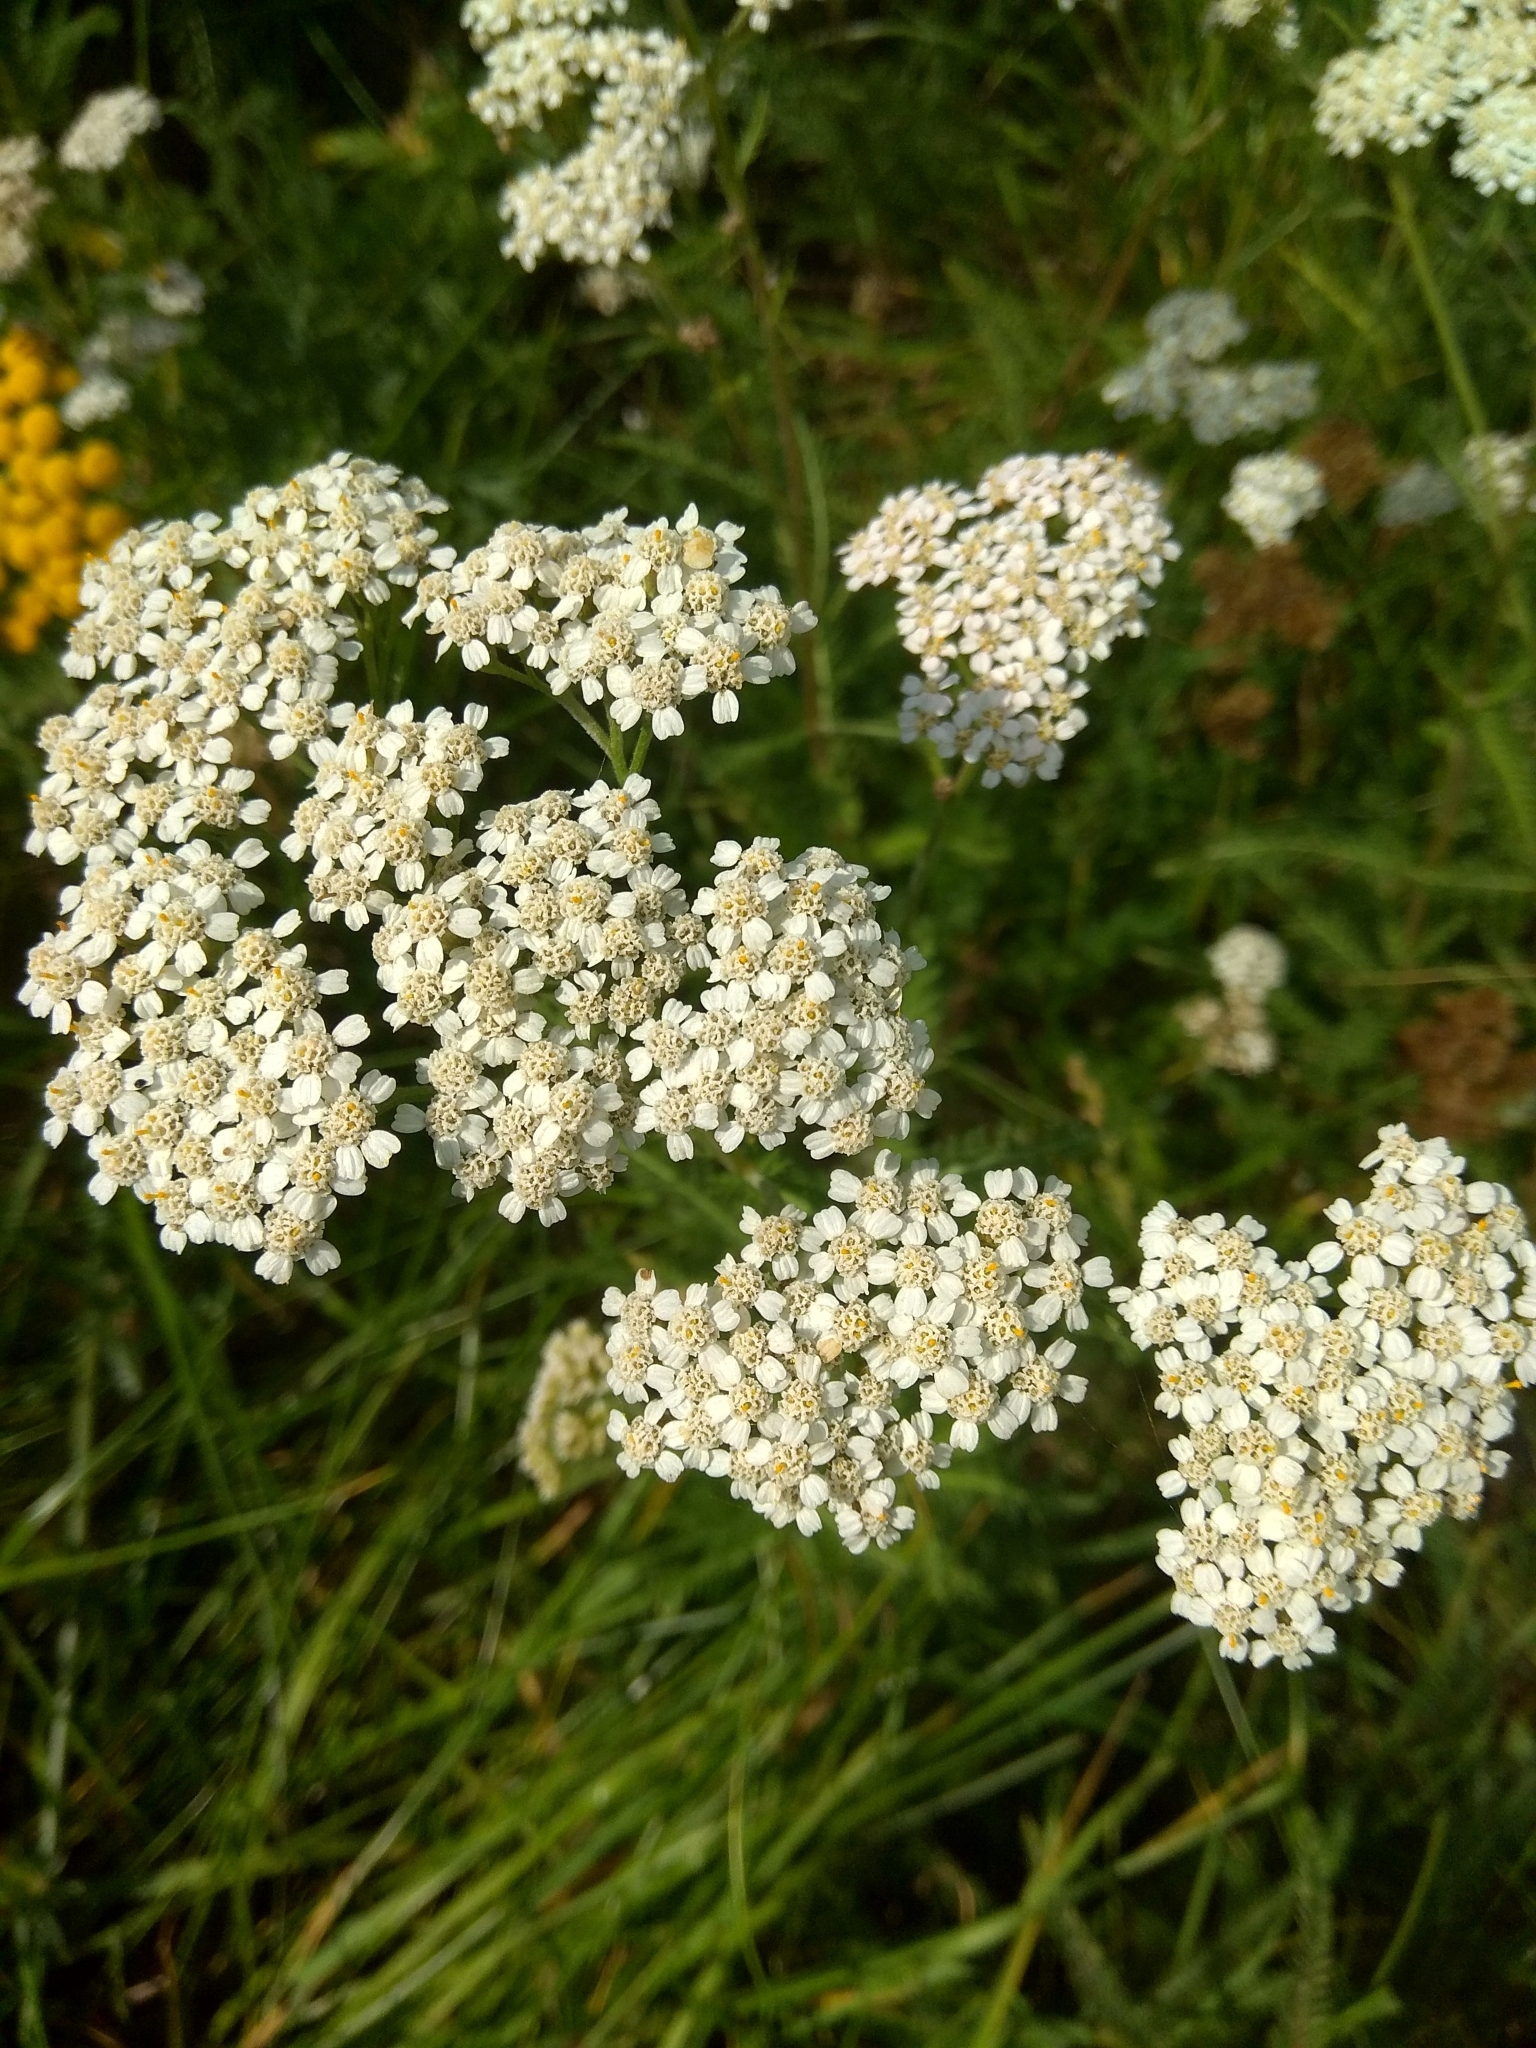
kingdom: Plantae
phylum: Tracheophyta
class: Magnoliopsida
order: Asterales
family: Asteraceae
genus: Achillea
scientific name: Achillea millefolium
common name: Yarrow
